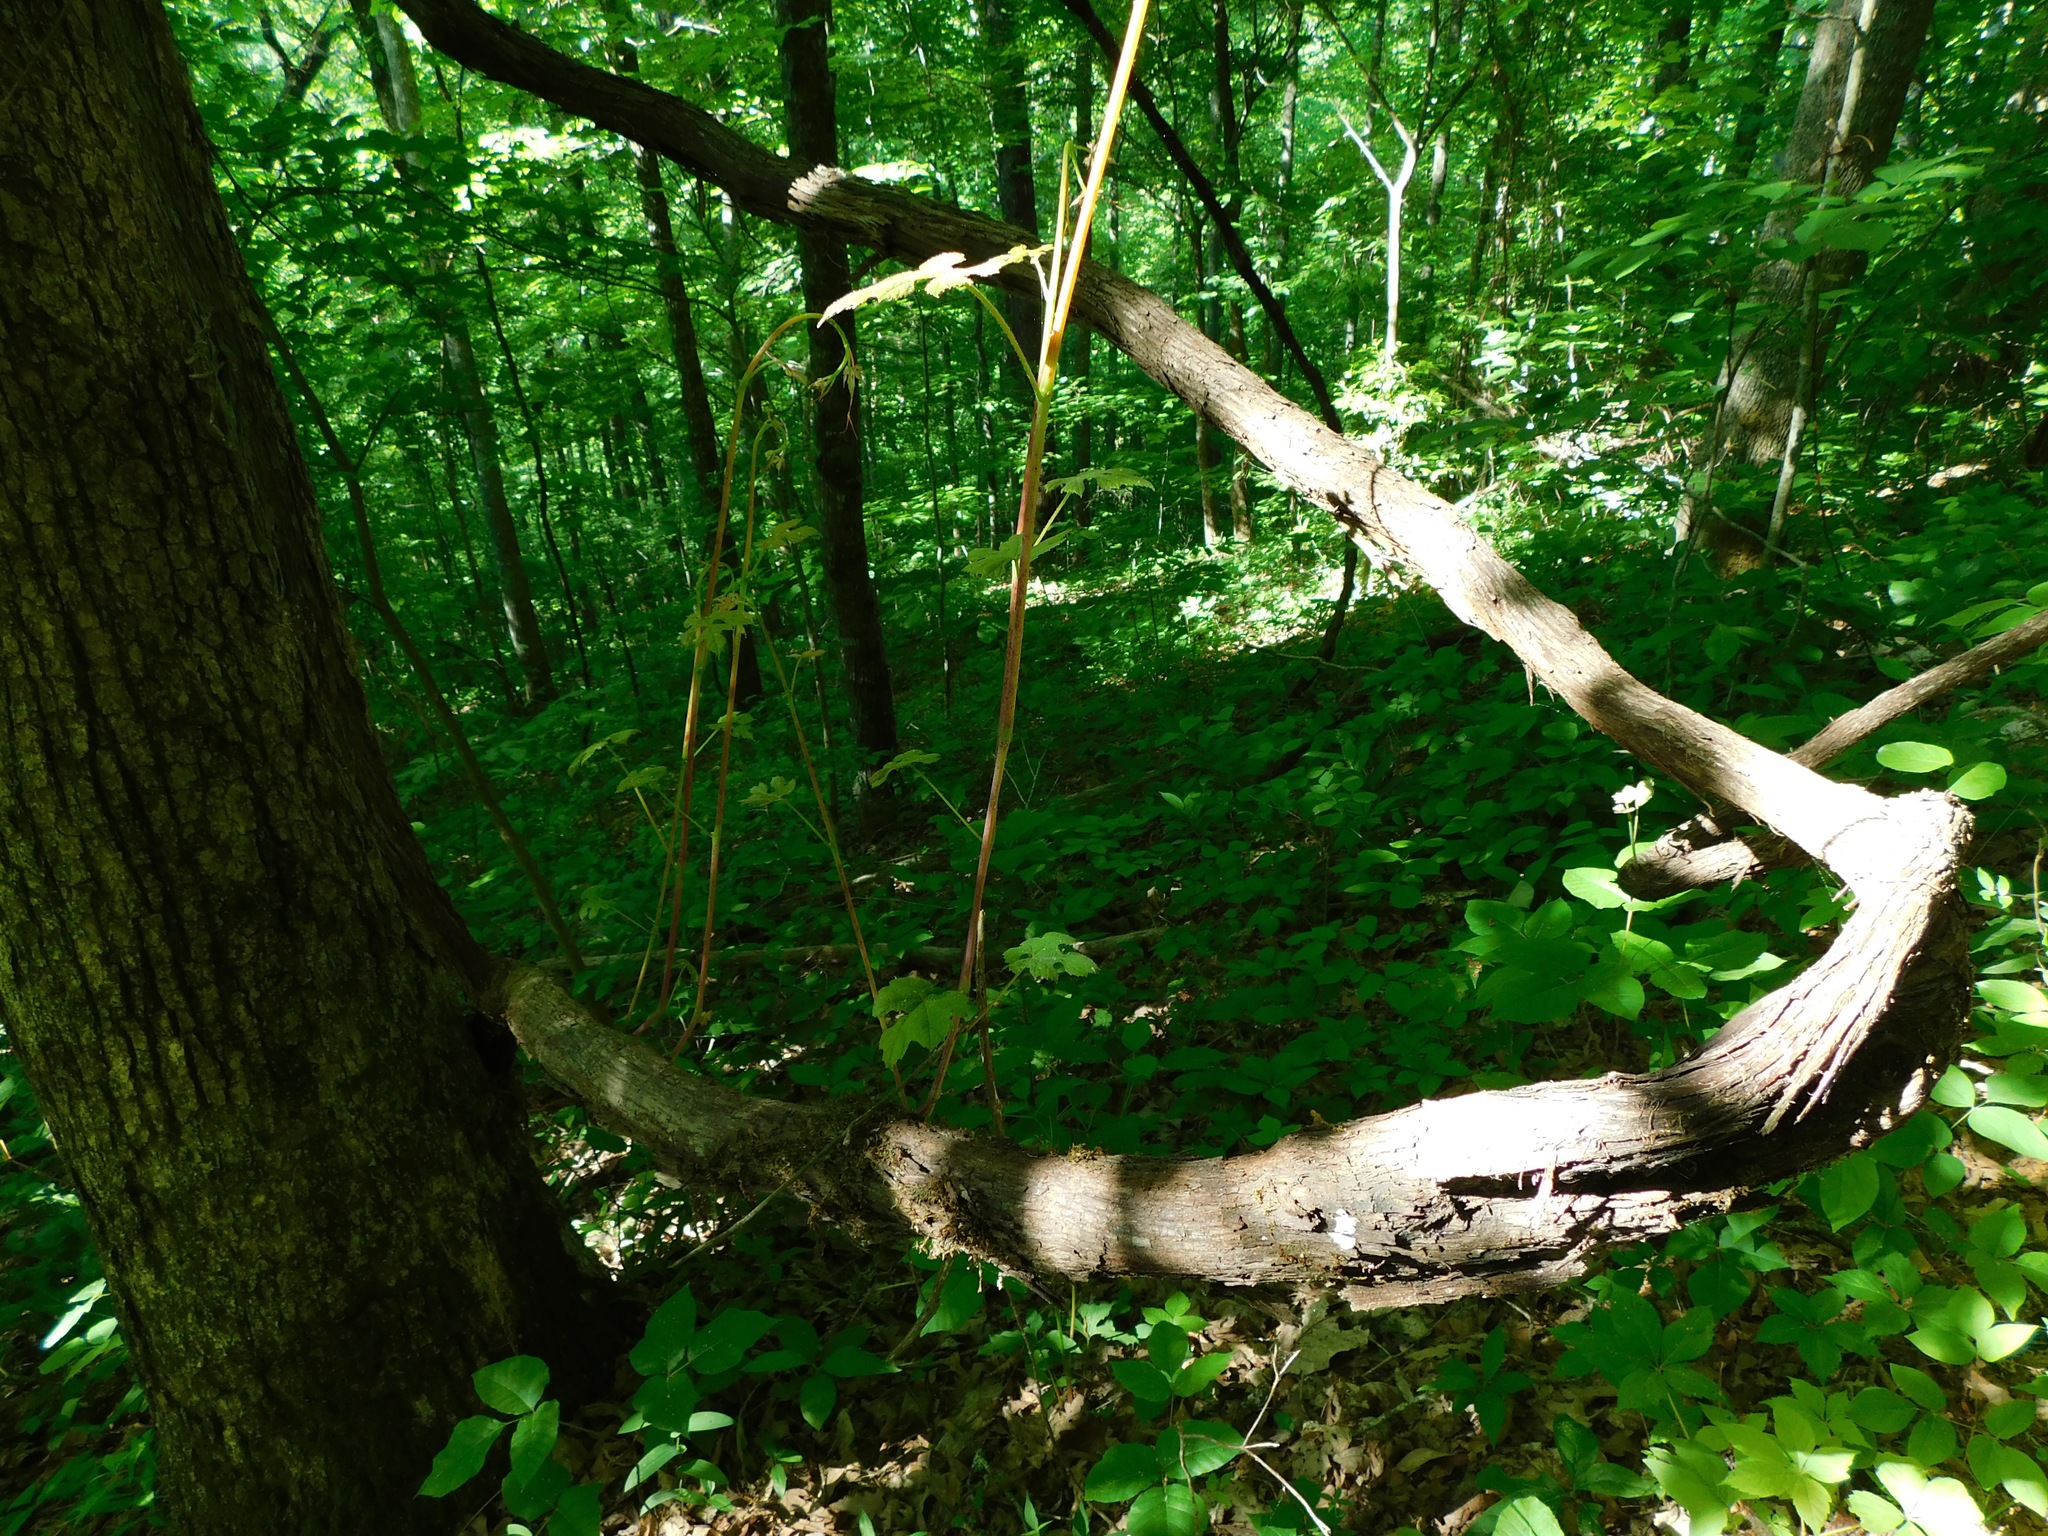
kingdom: Plantae
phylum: Tracheophyta
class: Magnoliopsida
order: Vitales
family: Vitaceae
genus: Vitis
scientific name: Vitis aestivalis
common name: Pigeon grape
